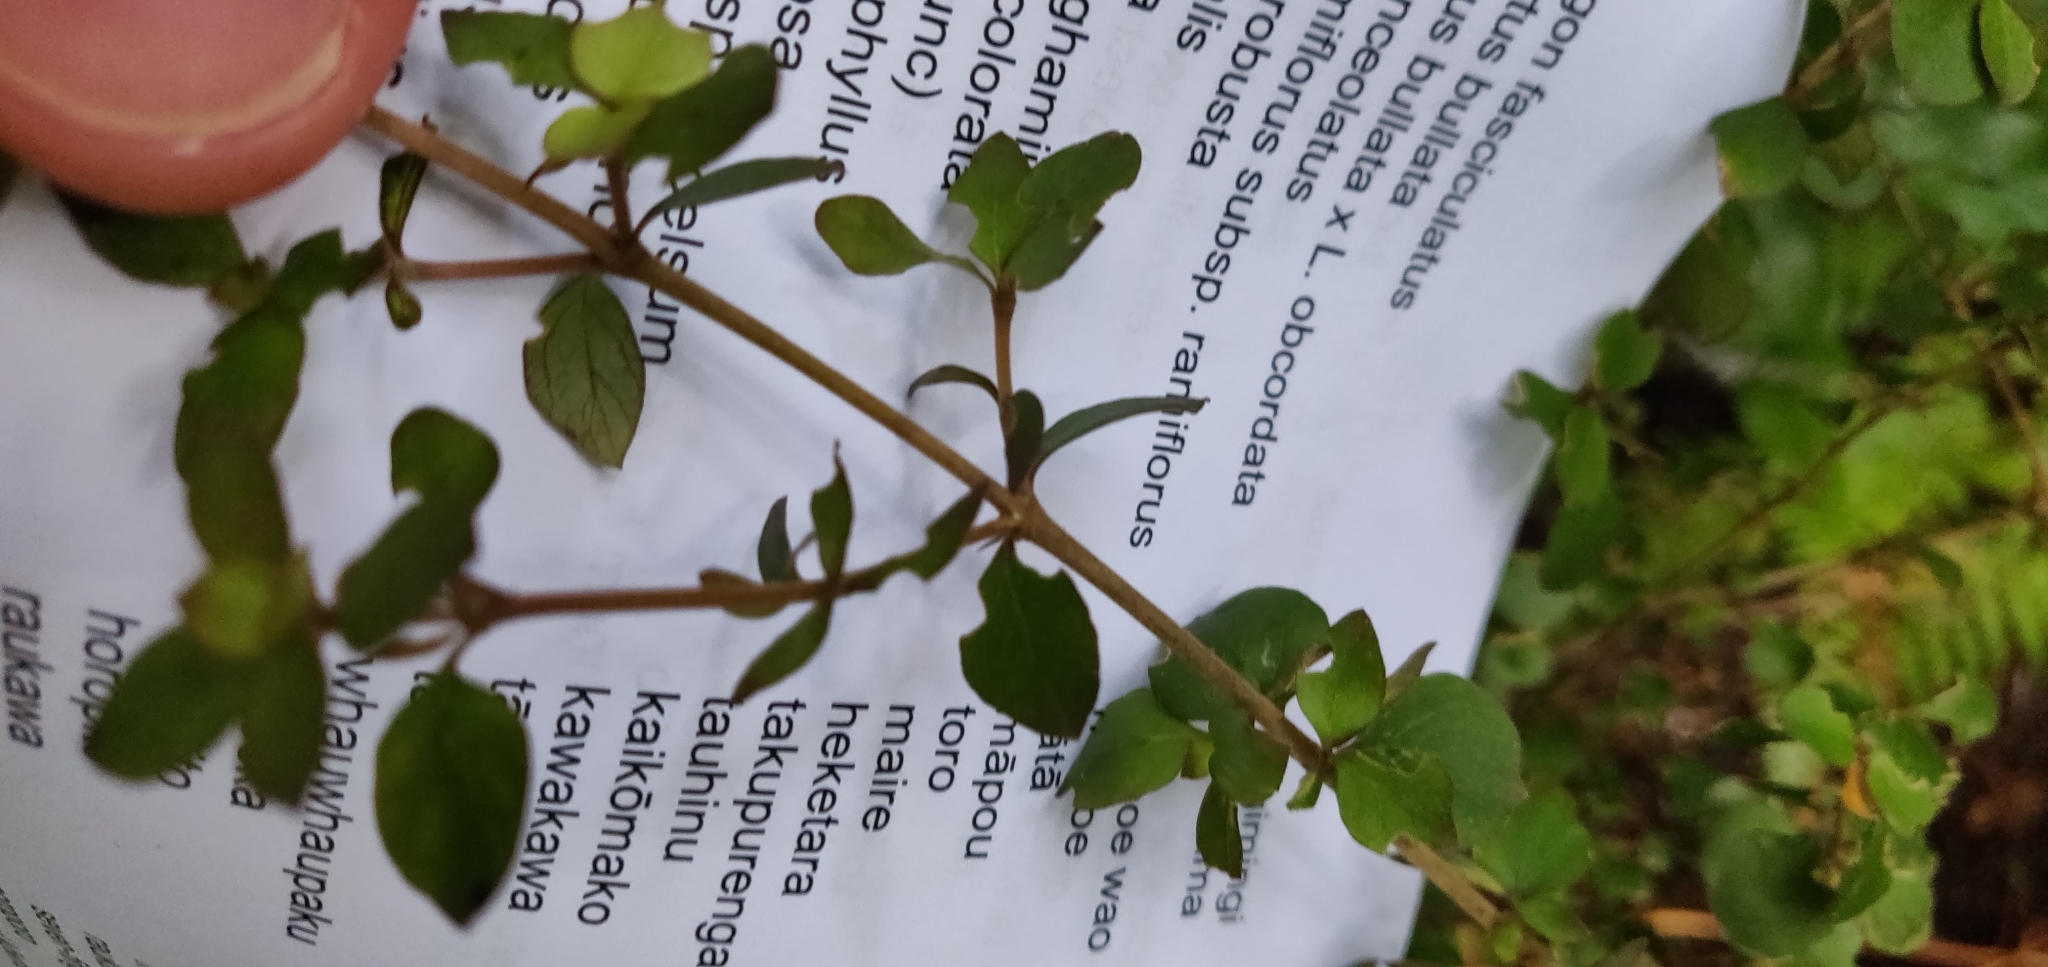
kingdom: Plantae
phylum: Tracheophyta
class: Magnoliopsida
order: Gentianales
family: Rubiaceae
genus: Coprosma
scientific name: Coprosma rhamnoides
